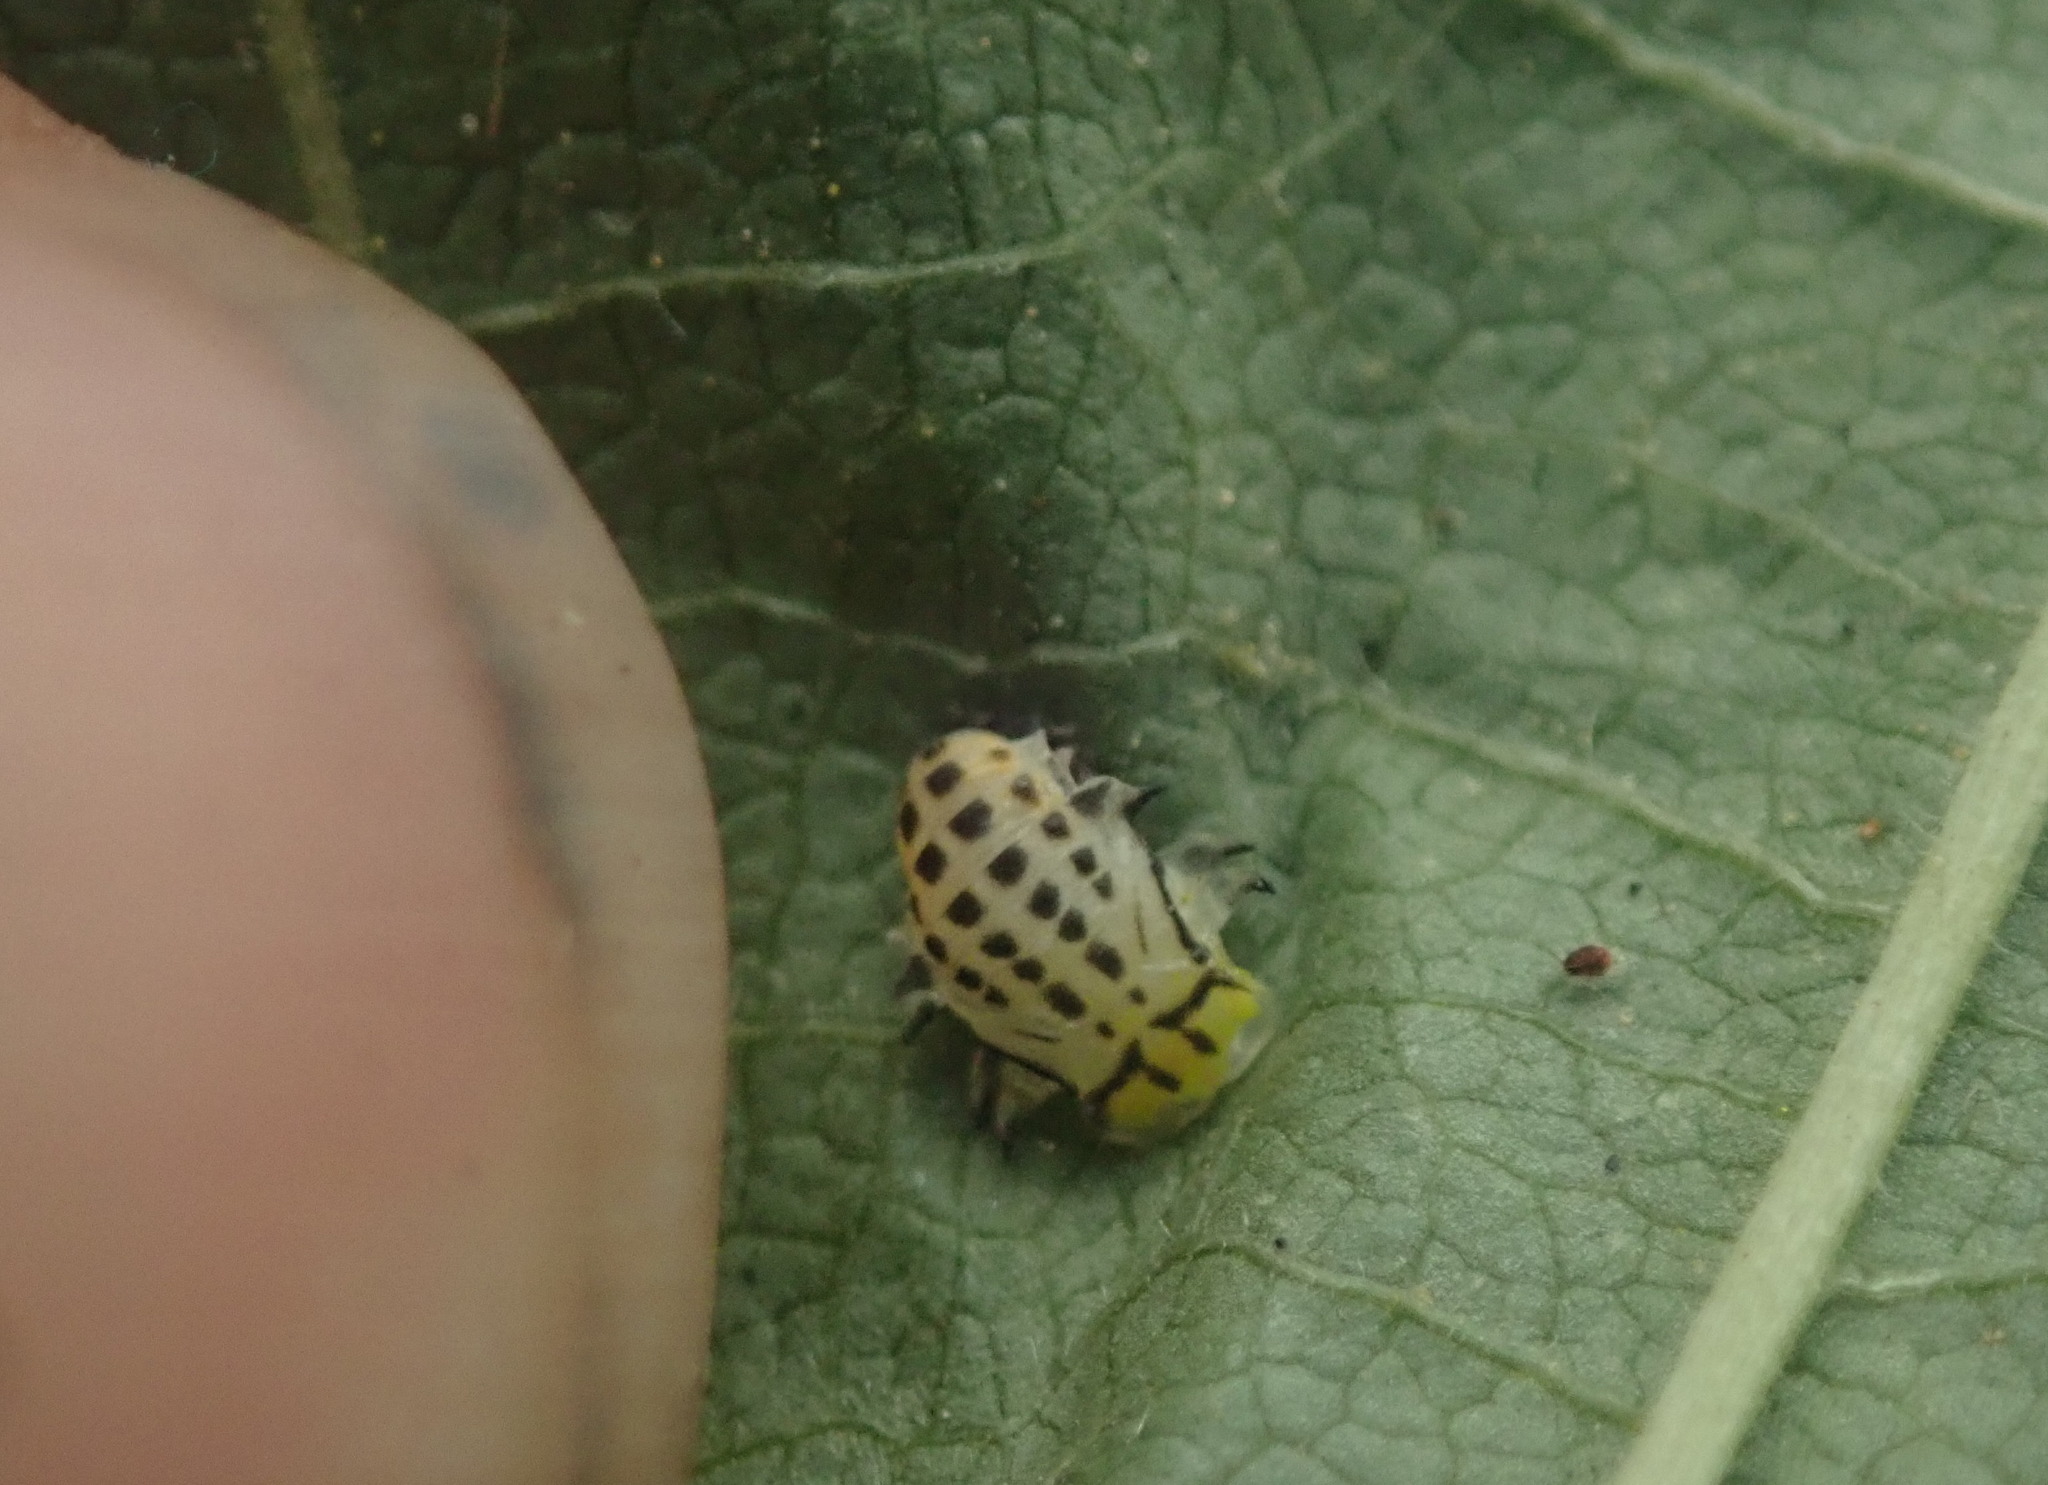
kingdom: Animalia
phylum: Arthropoda
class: Insecta
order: Coleoptera
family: Coccinellidae
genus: Illeis
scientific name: Illeis galbula
